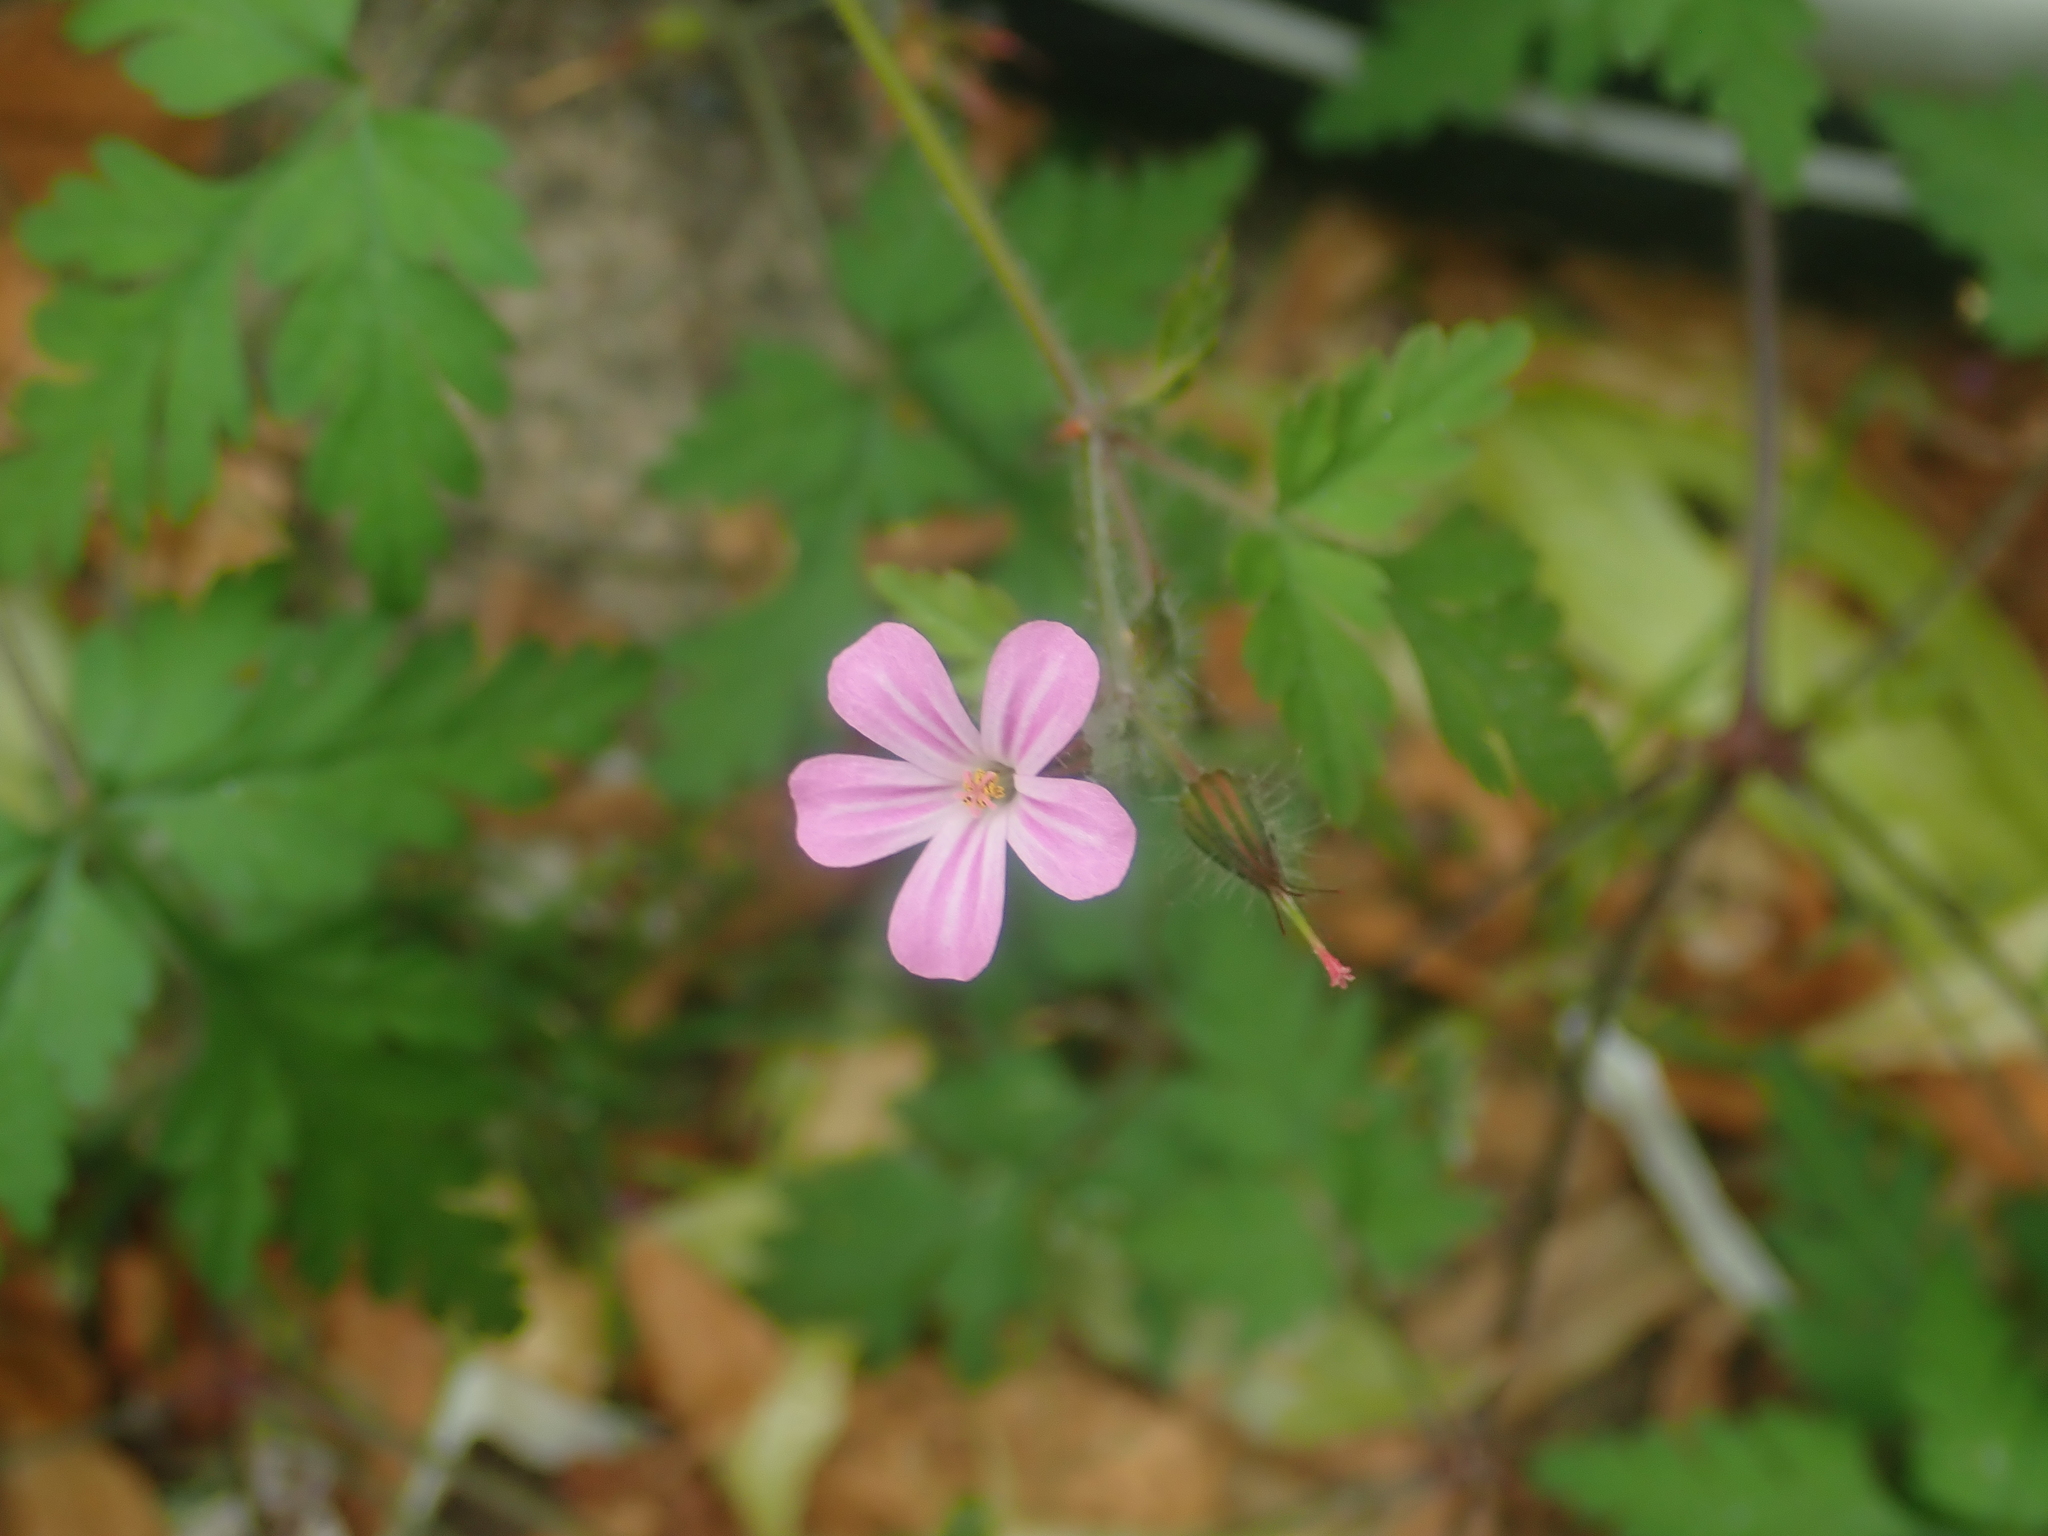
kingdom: Plantae
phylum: Tracheophyta
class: Magnoliopsida
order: Geraniales
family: Geraniaceae
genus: Geranium
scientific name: Geranium robertianum
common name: Herb-robert
